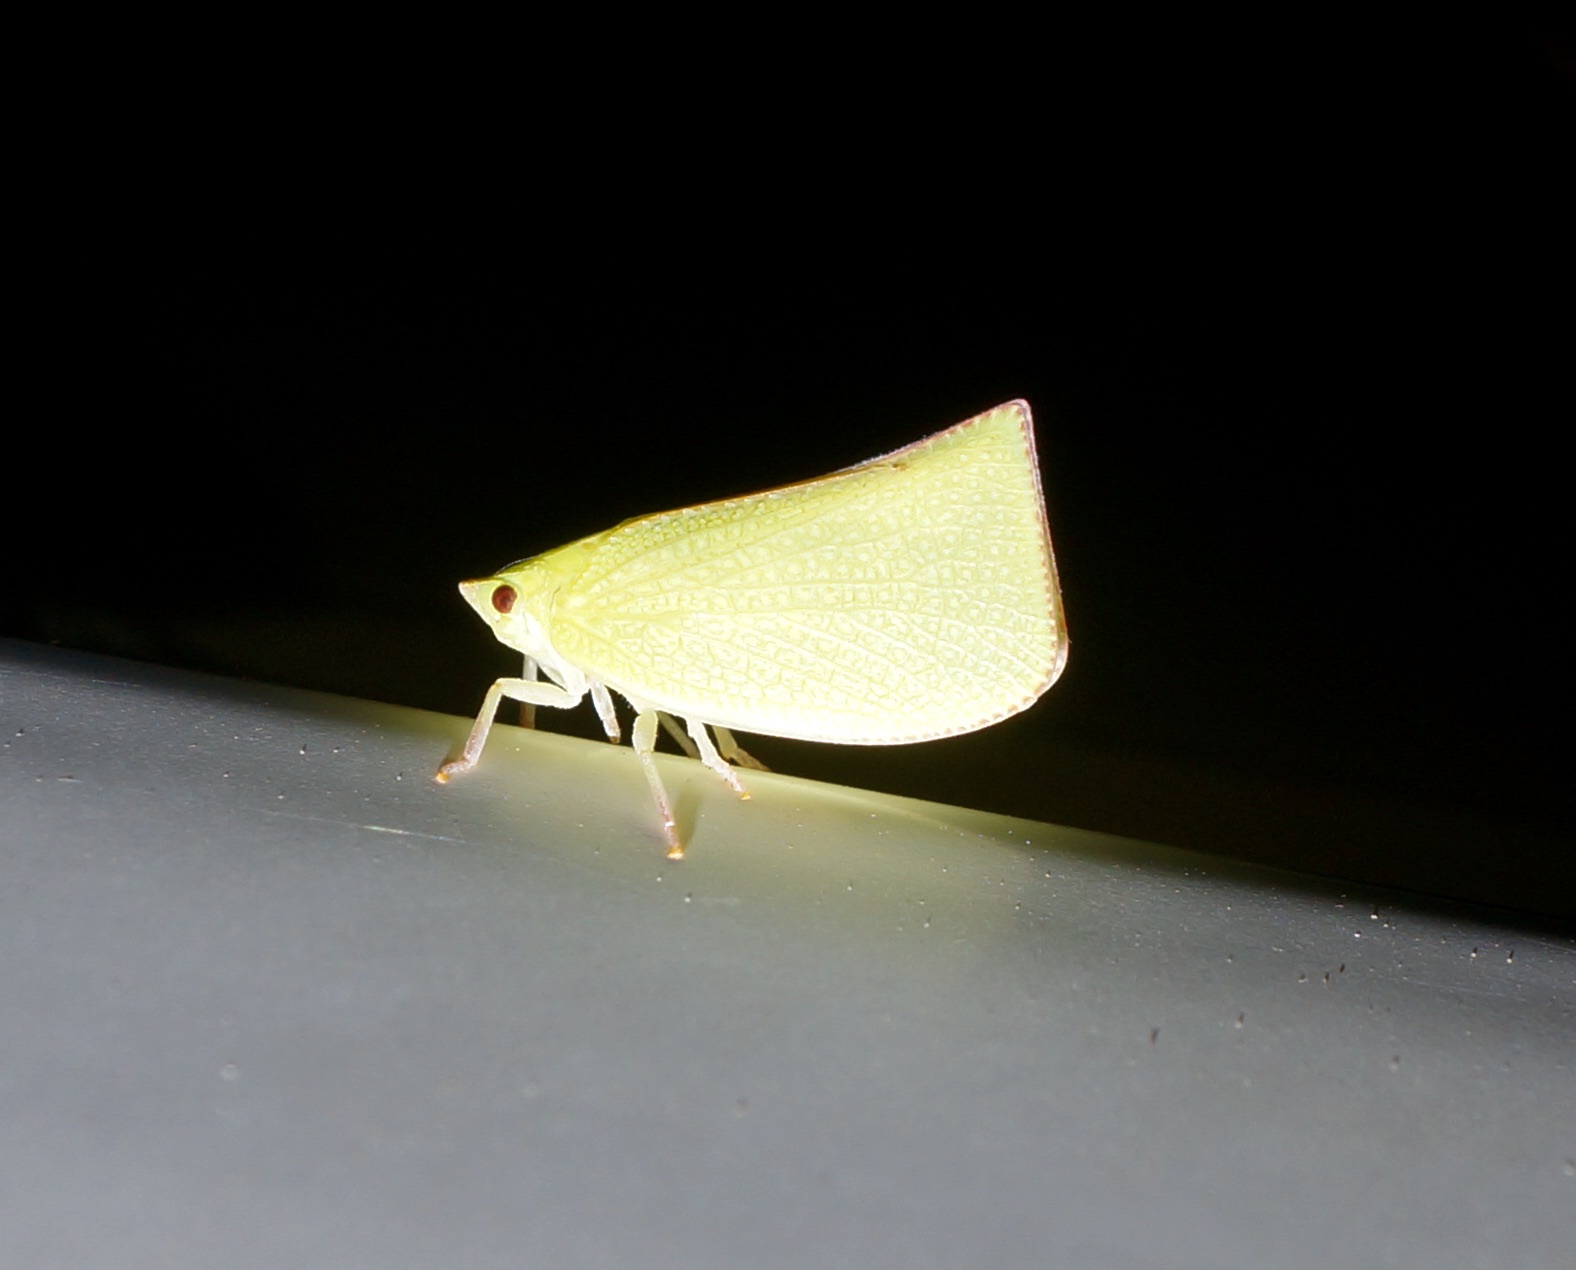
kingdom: Animalia
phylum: Arthropoda
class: Insecta
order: Hemiptera
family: Flatidae
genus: Siphanta
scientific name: Siphanta acuta
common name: Torpedo bug
